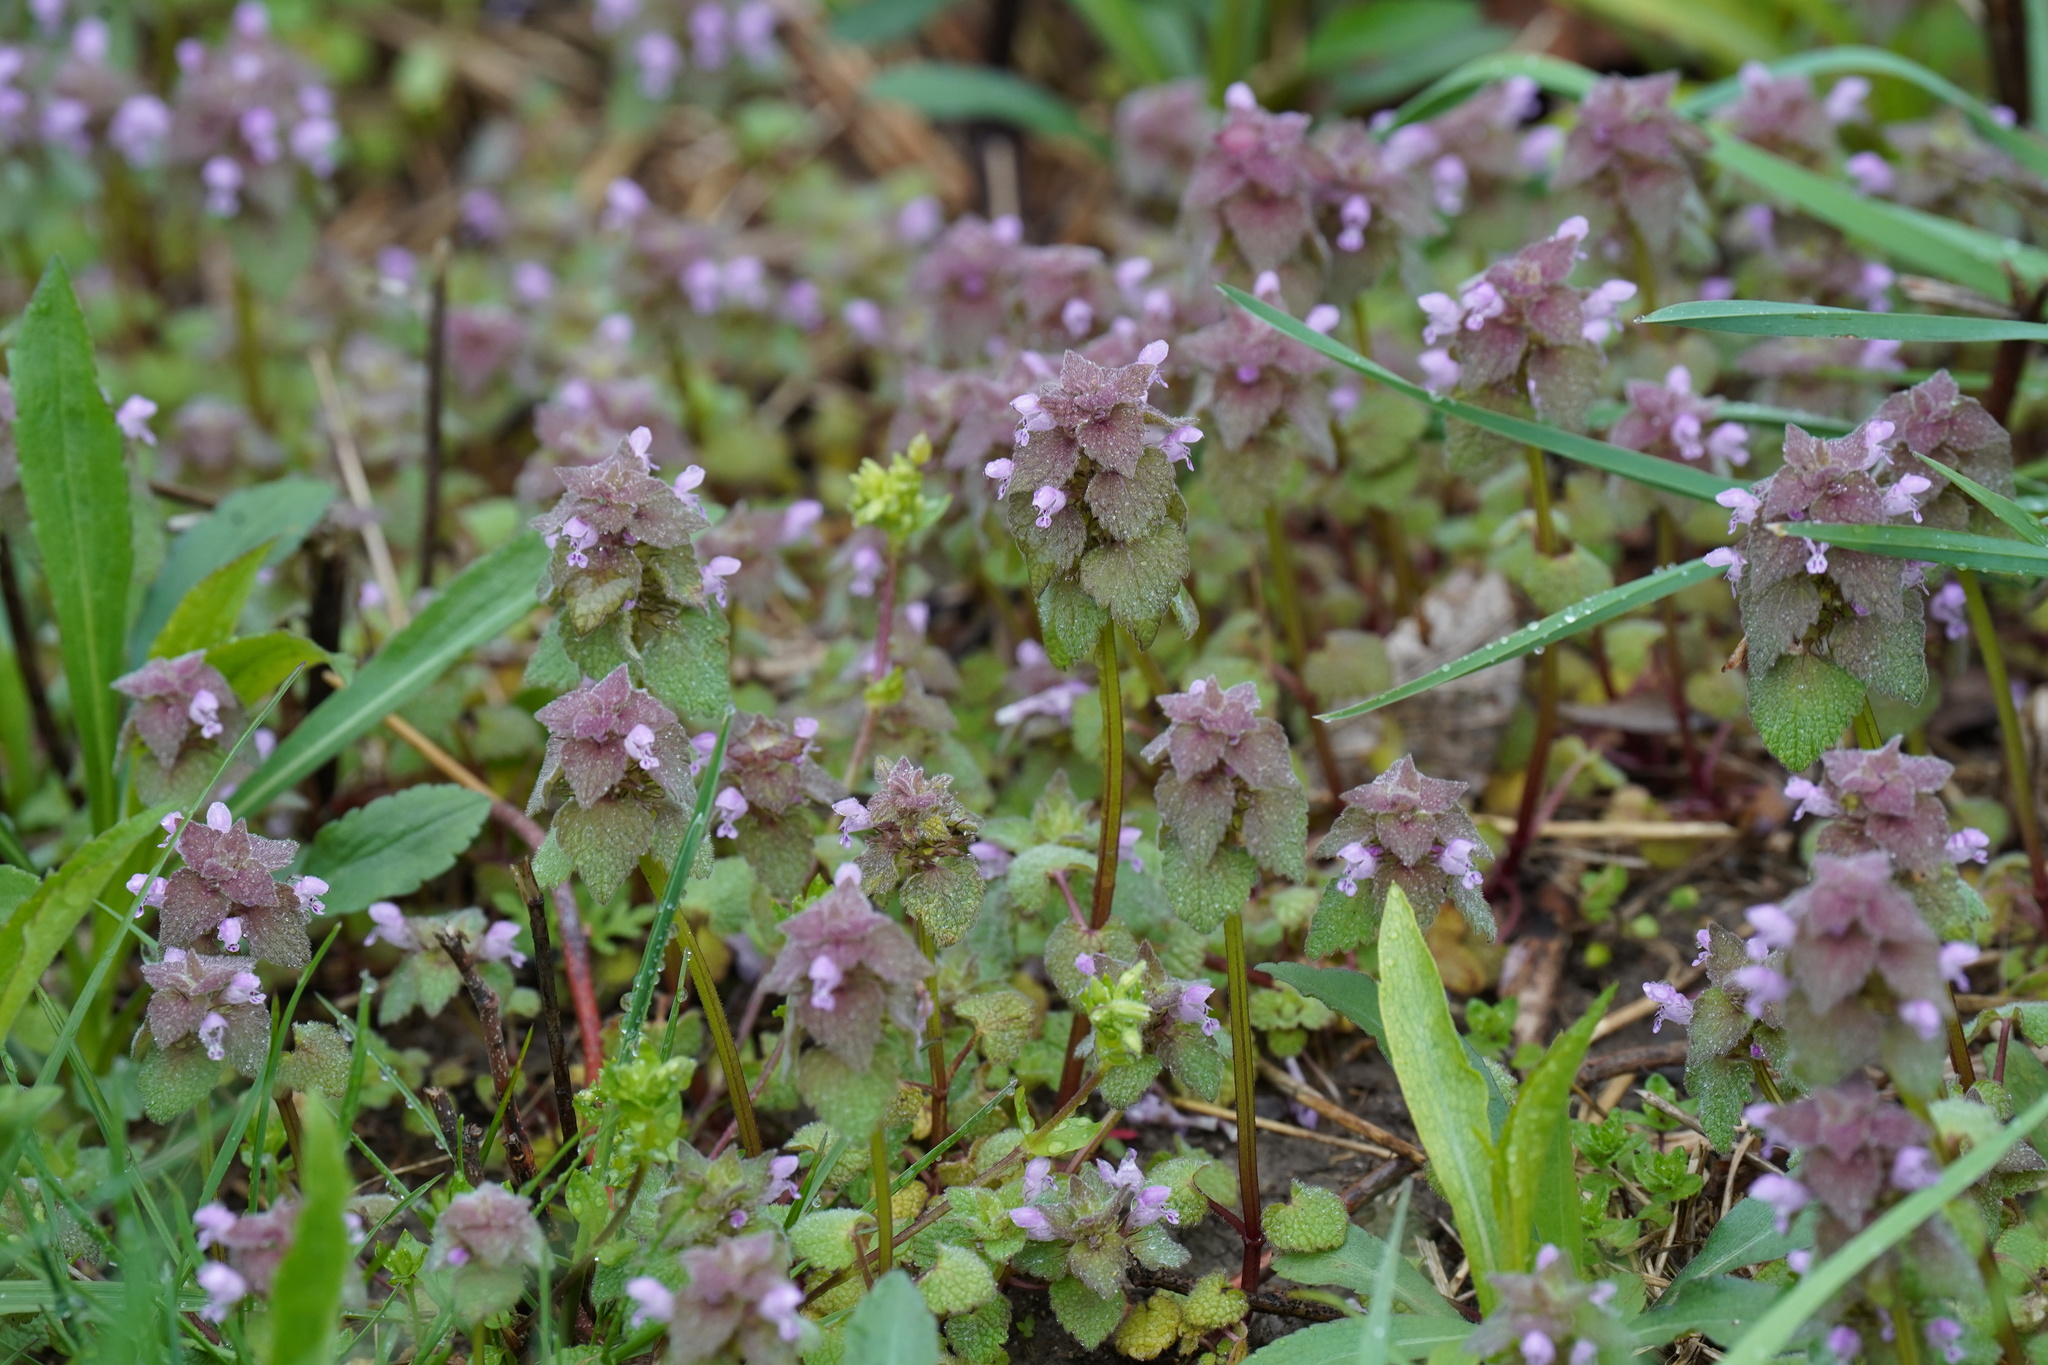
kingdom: Plantae
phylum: Tracheophyta
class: Magnoliopsida
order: Lamiales
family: Lamiaceae
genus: Lamium
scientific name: Lamium purpureum
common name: Red dead-nettle
